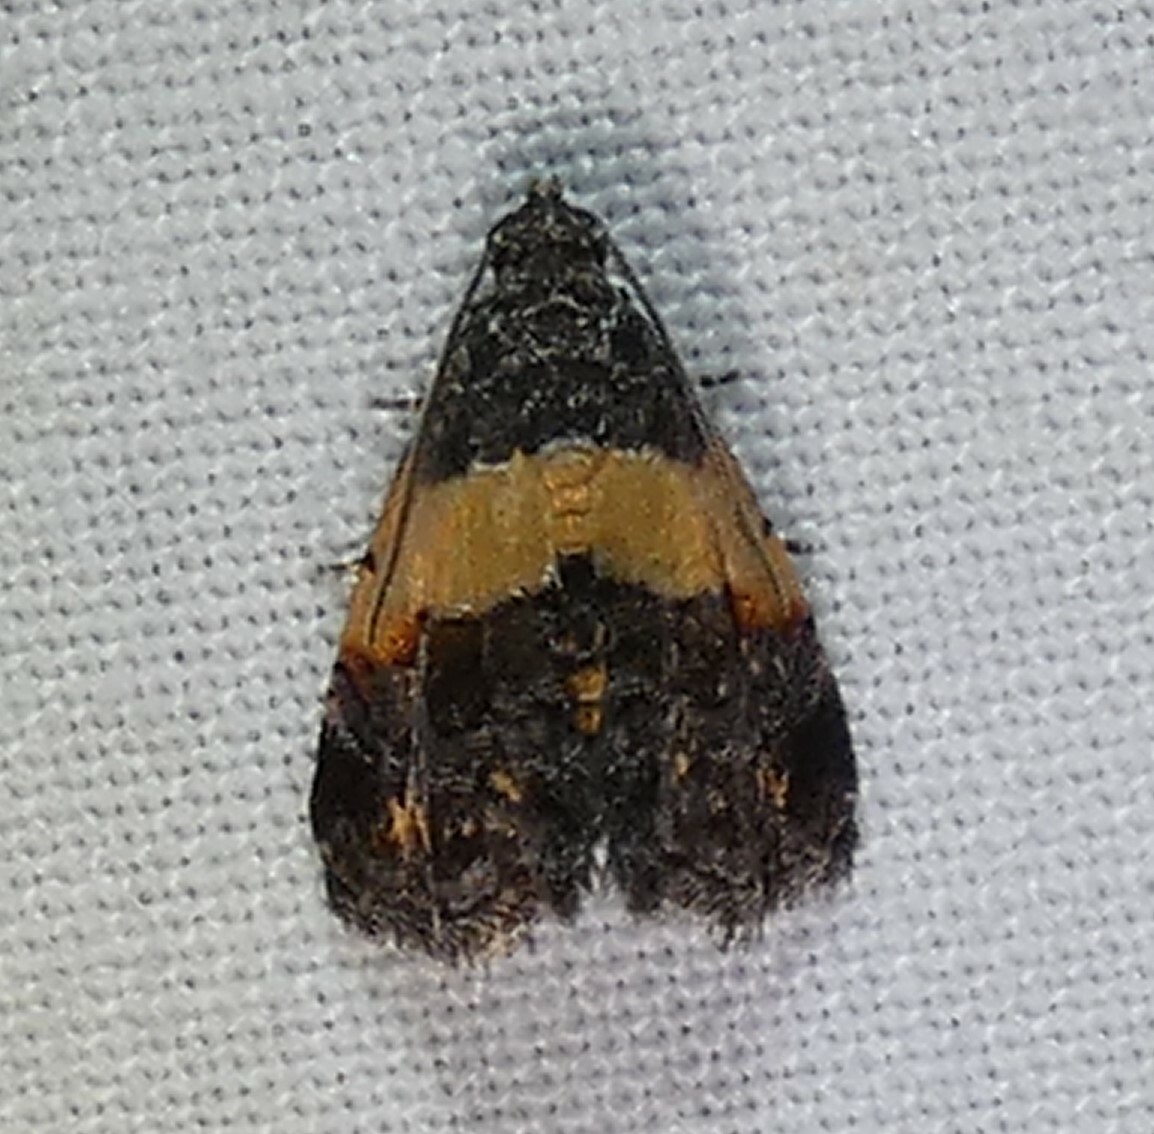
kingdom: Animalia
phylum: Arthropoda
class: Insecta
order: Lepidoptera
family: Noctuidae
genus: Tripudia
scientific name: Tripudia balteata
